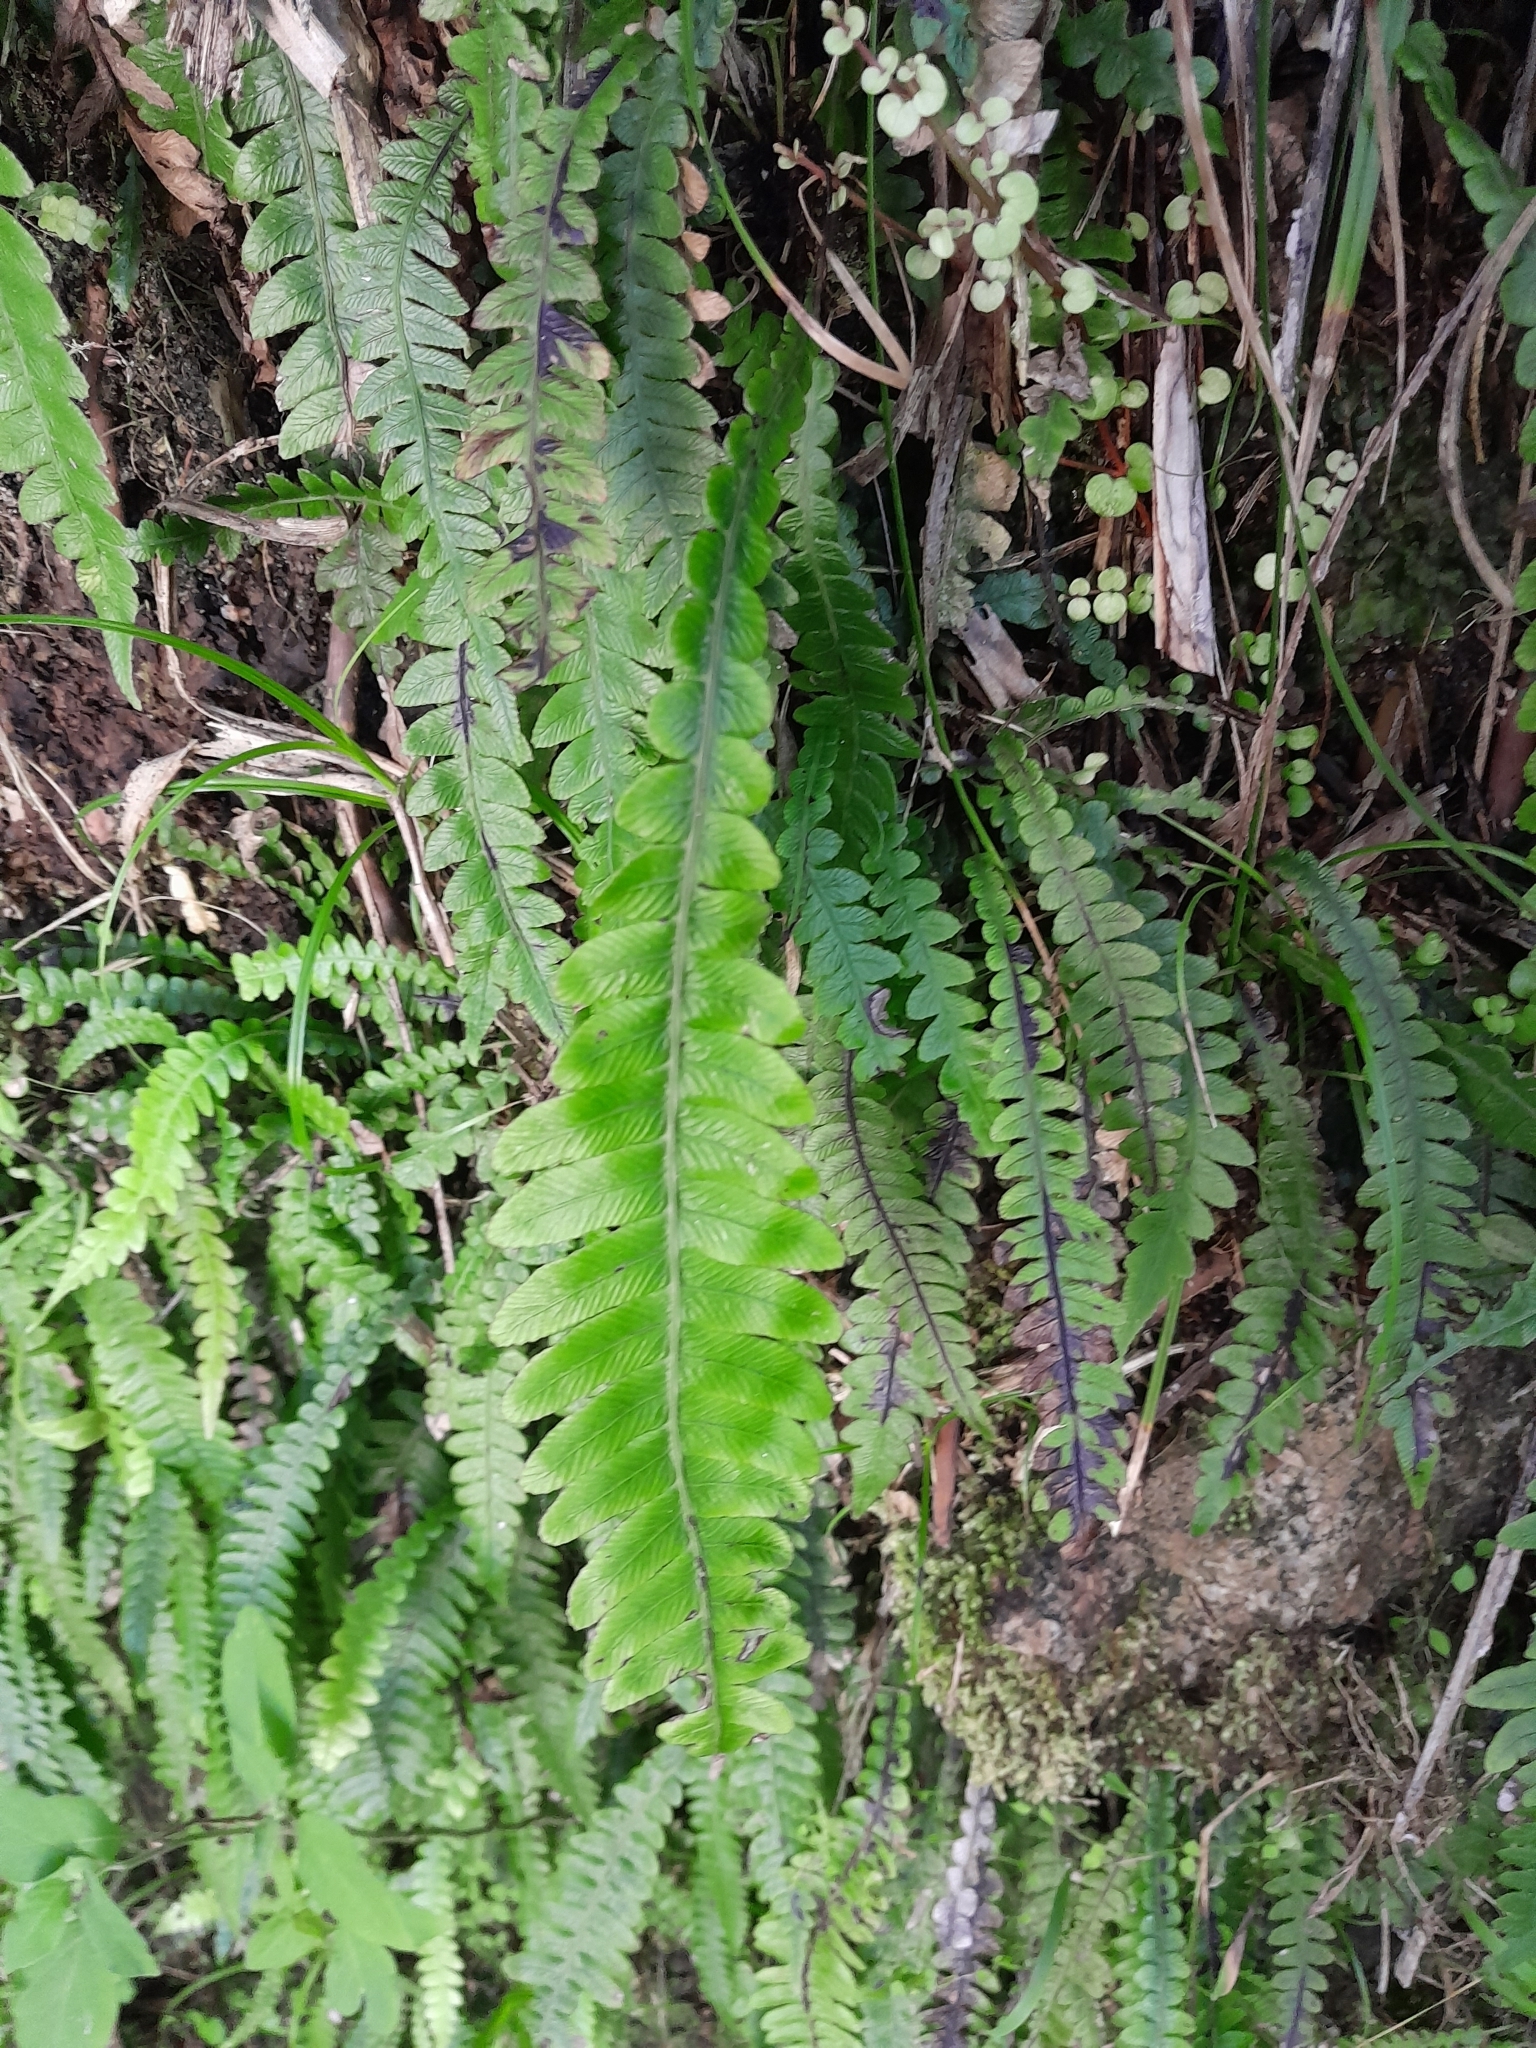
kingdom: Plantae
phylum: Tracheophyta
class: Polypodiopsida
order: Polypodiales
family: Blechnaceae
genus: Austroblechnum
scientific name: Austroblechnum lanceolatum
